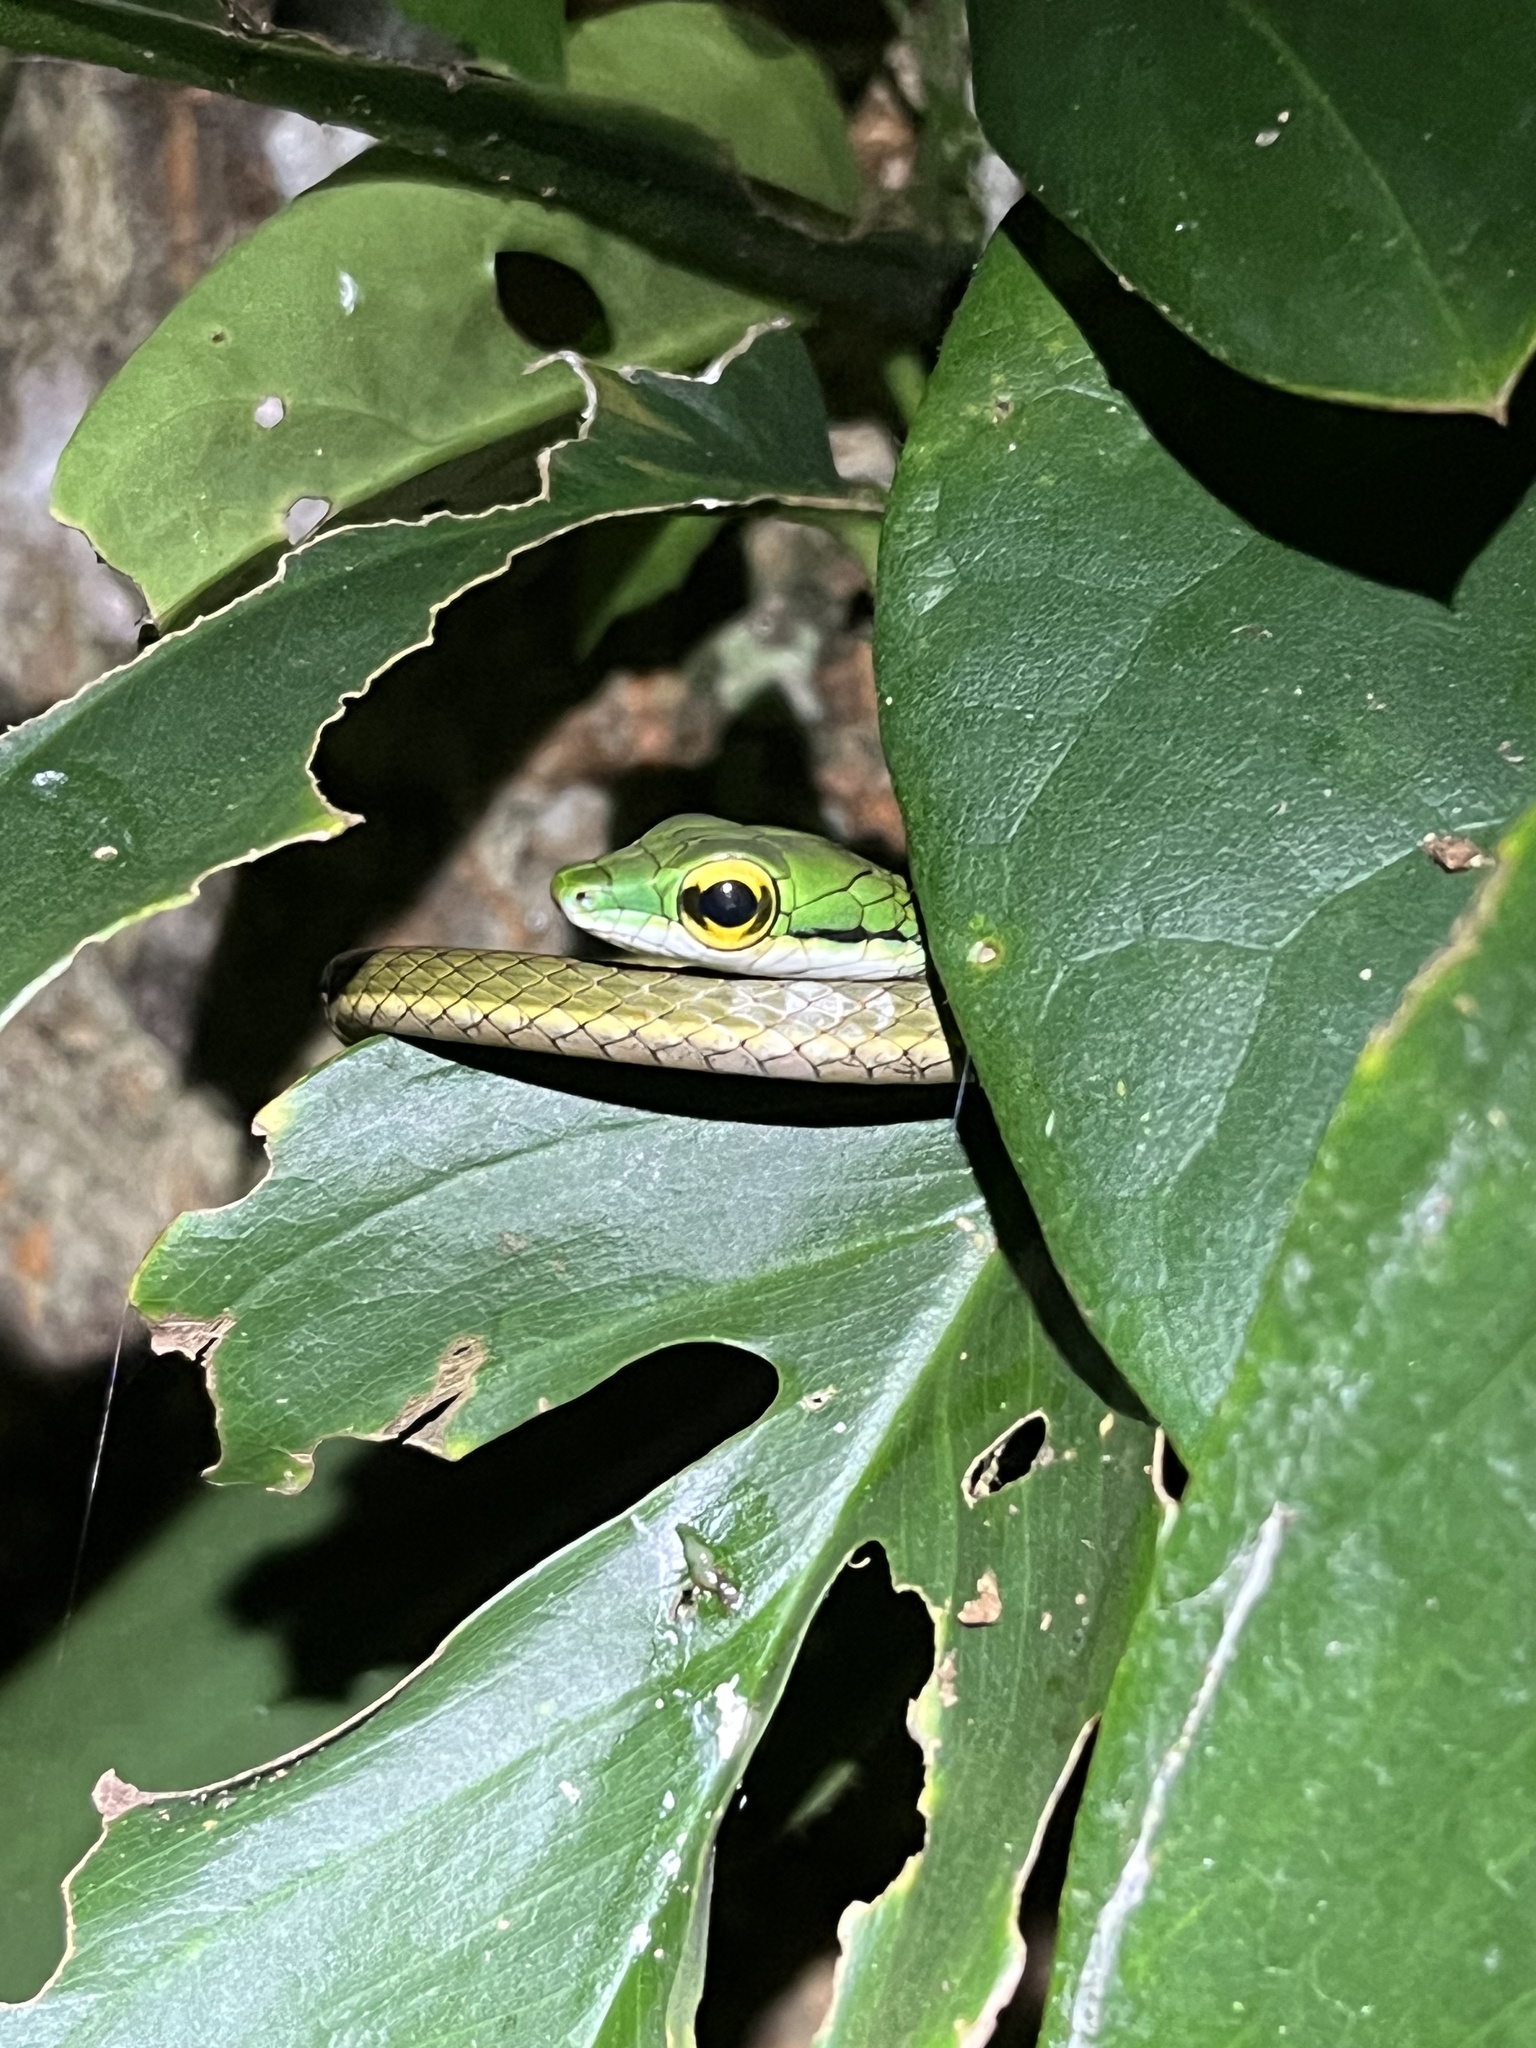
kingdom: Animalia
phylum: Chordata
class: Squamata
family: Colubridae
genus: Leptophis
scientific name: Leptophis nebulosus
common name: Oliver's parrot snake
